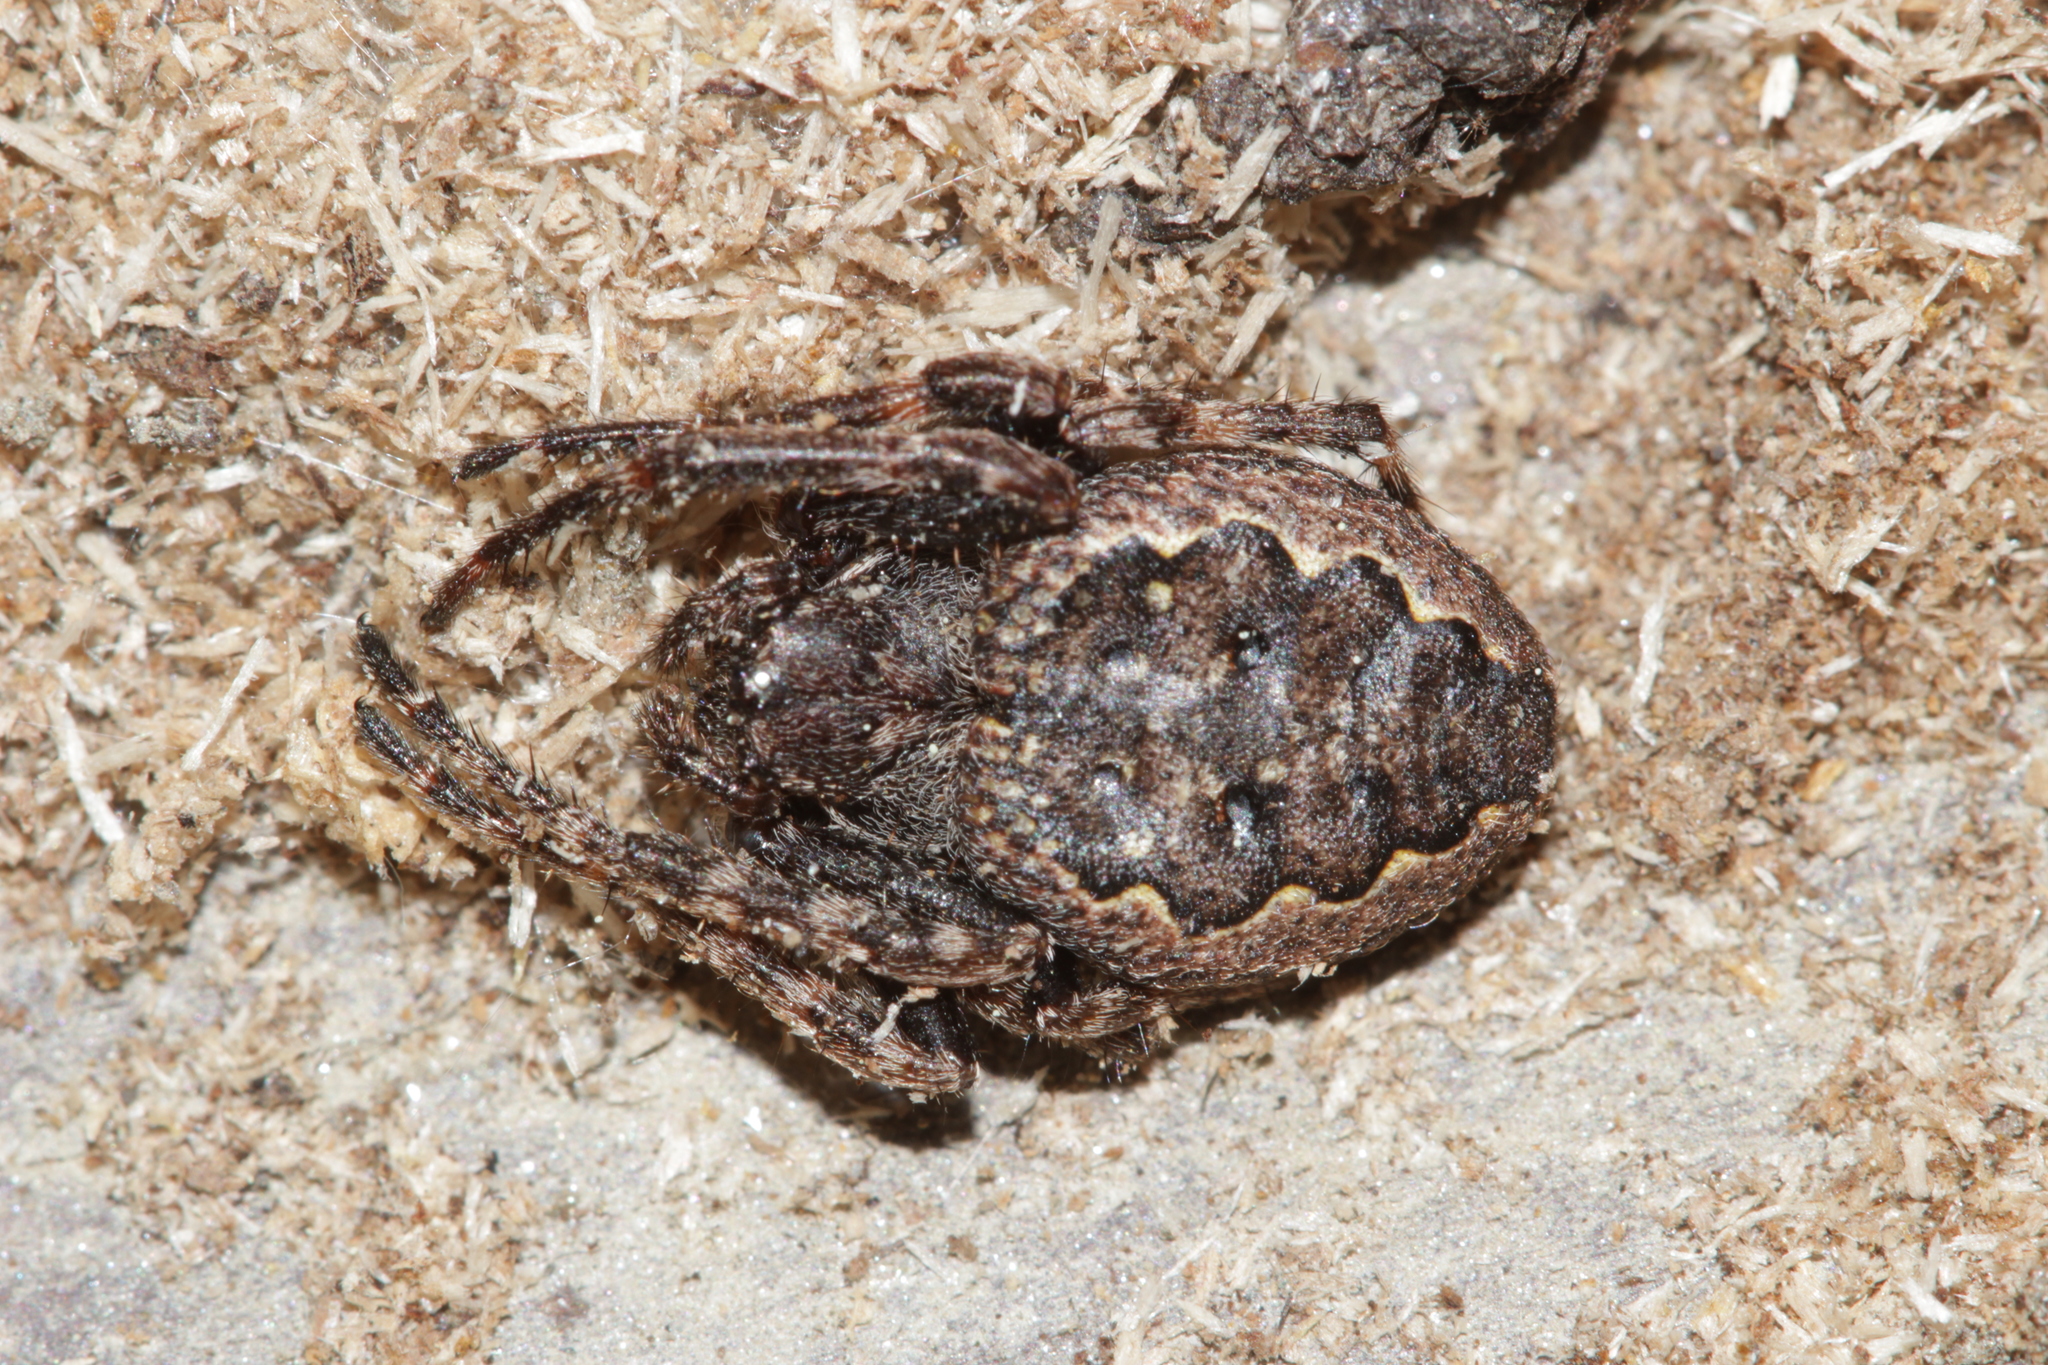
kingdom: Animalia
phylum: Arthropoda
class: Arachnida
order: Araneae
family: Araneidae
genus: Nuctenea
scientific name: Nuctenea umbratica
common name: Toad spider
